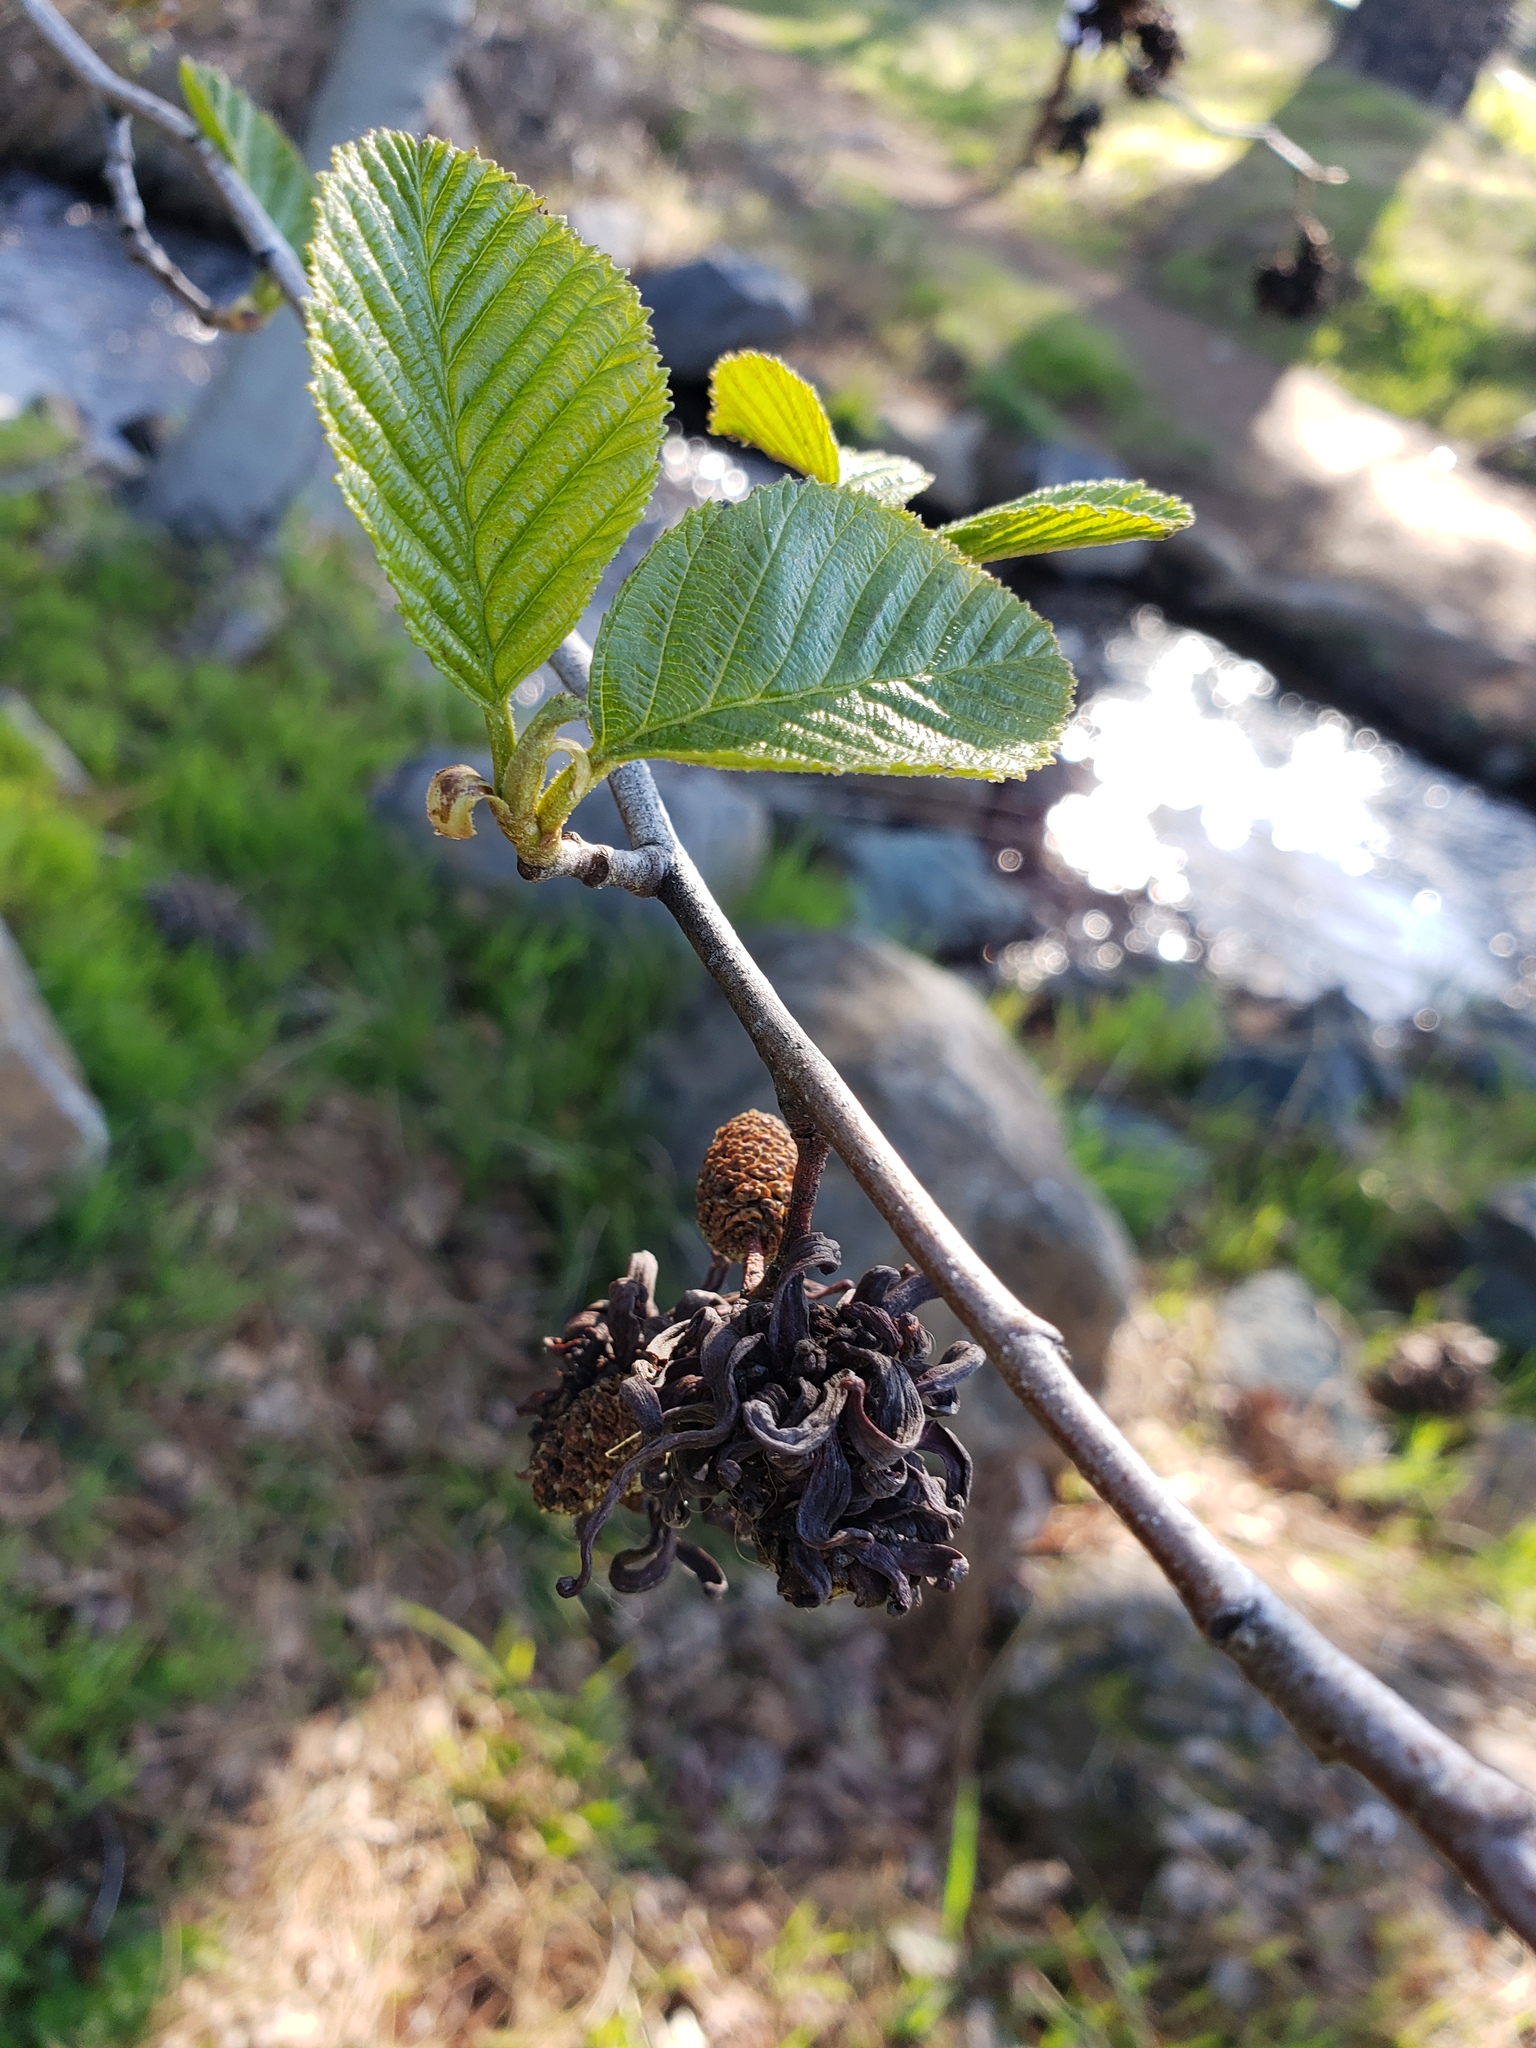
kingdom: Fungi
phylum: Ascomycota
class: Taphrinomycetes
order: Taphrinales
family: Taphrinaceae
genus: Taphrina
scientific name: Taphrina occidentalis
